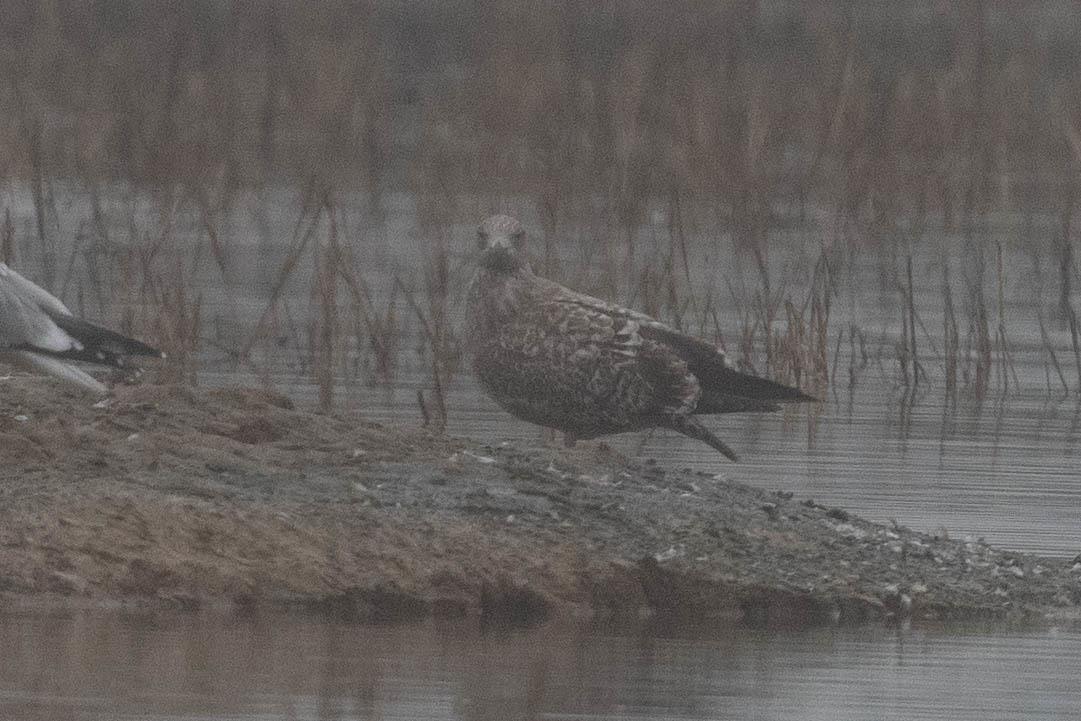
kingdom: Animalia
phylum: Chordata
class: Aves
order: Charadriiformes
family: Laridae
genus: Larus
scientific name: Larus argentatus
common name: Herring gull
